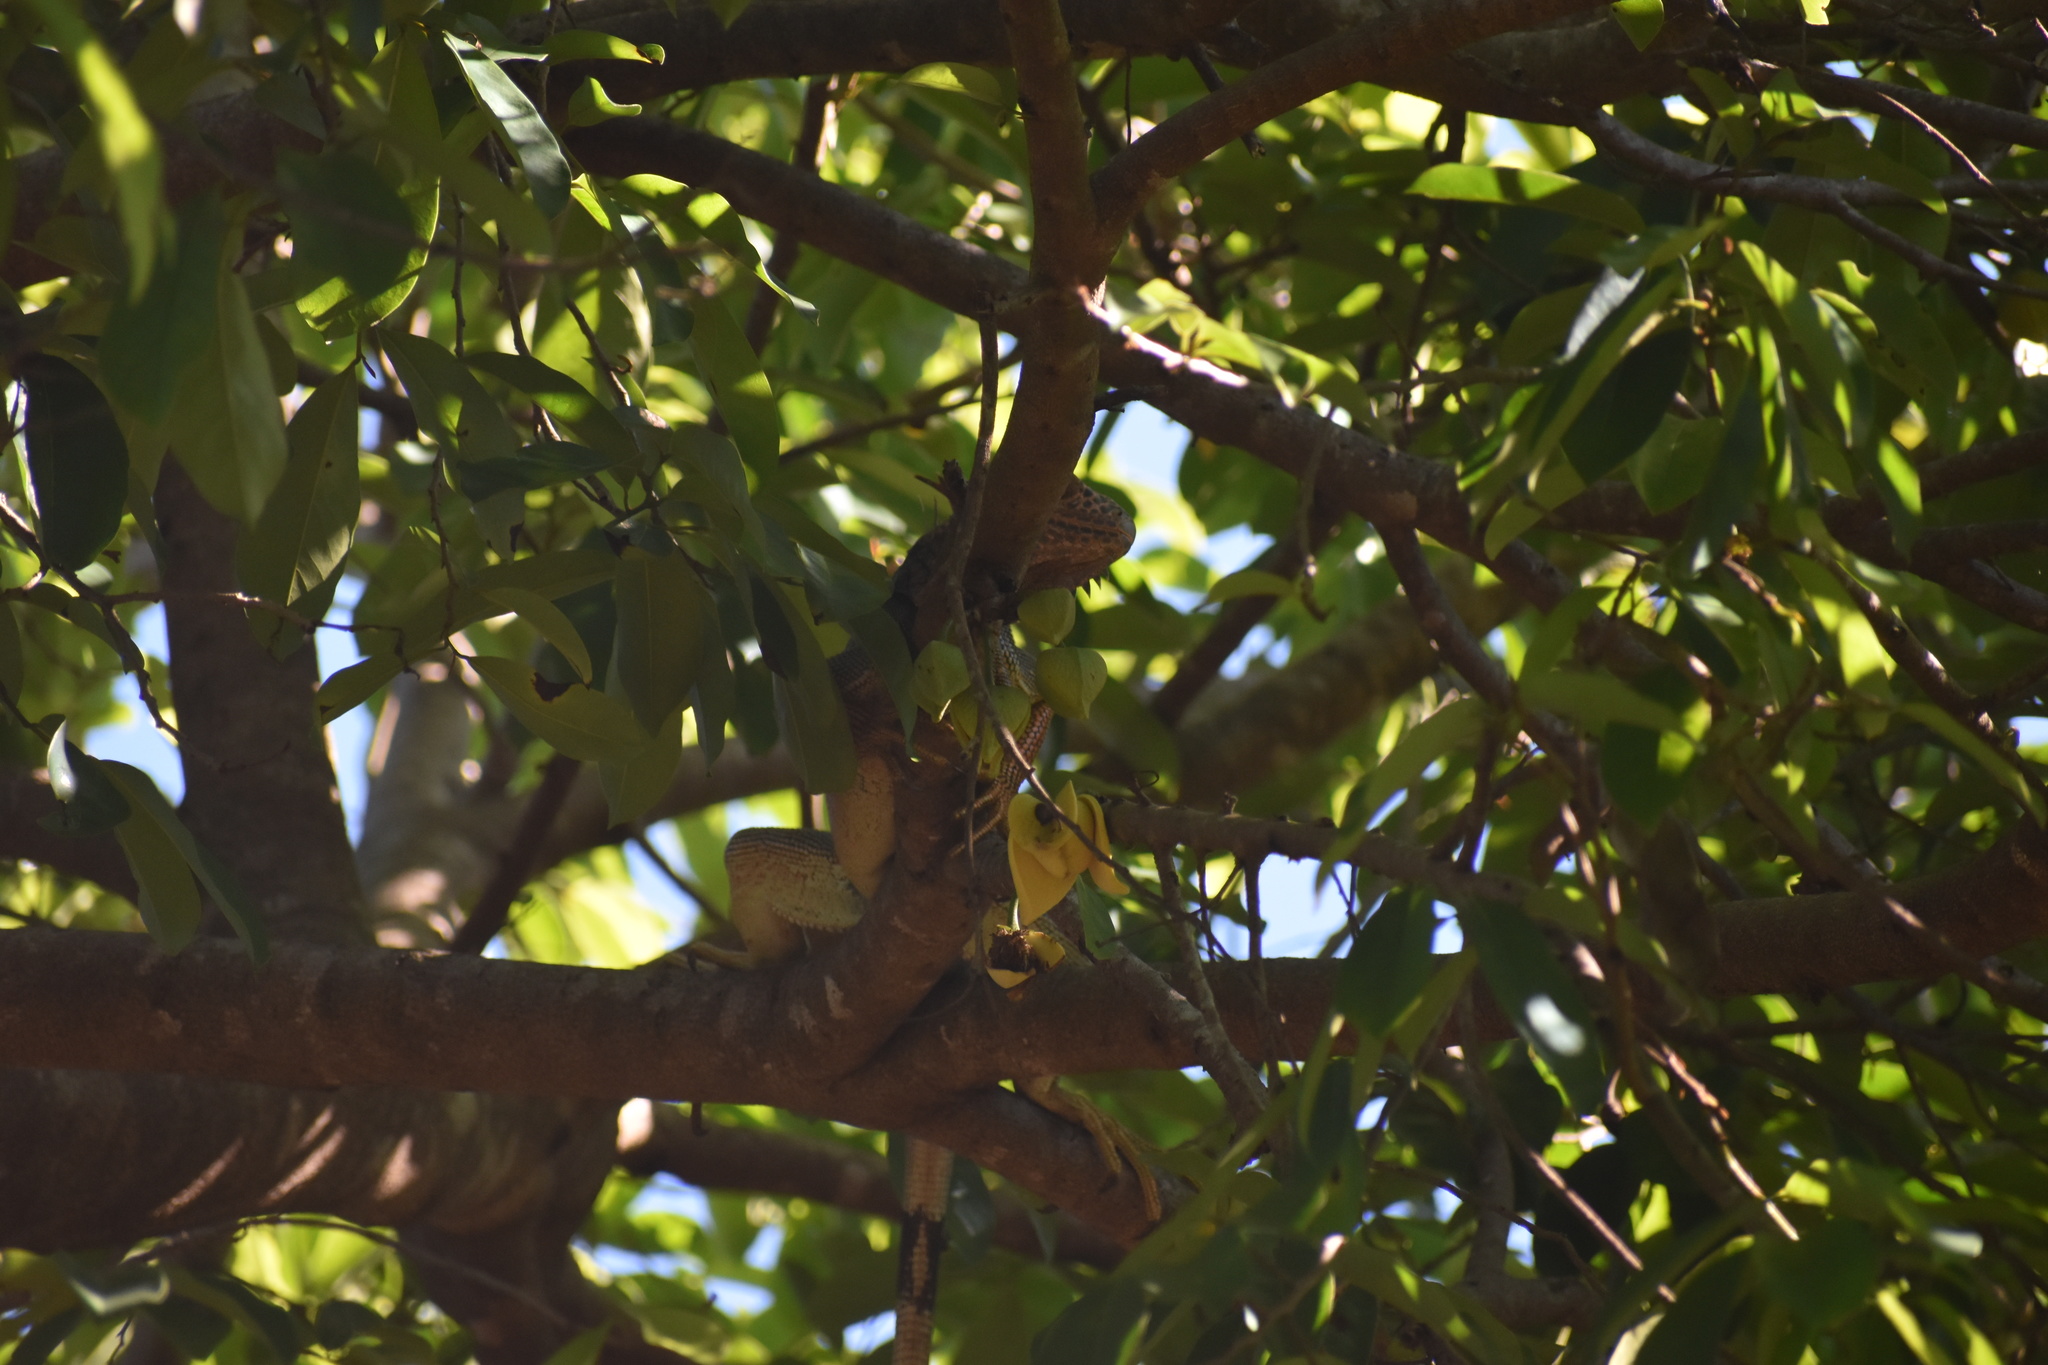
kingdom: Animalia
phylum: Chordata
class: Squamata
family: Iguanidae
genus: Iguana
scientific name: Iguana iguana
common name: Green iguana
